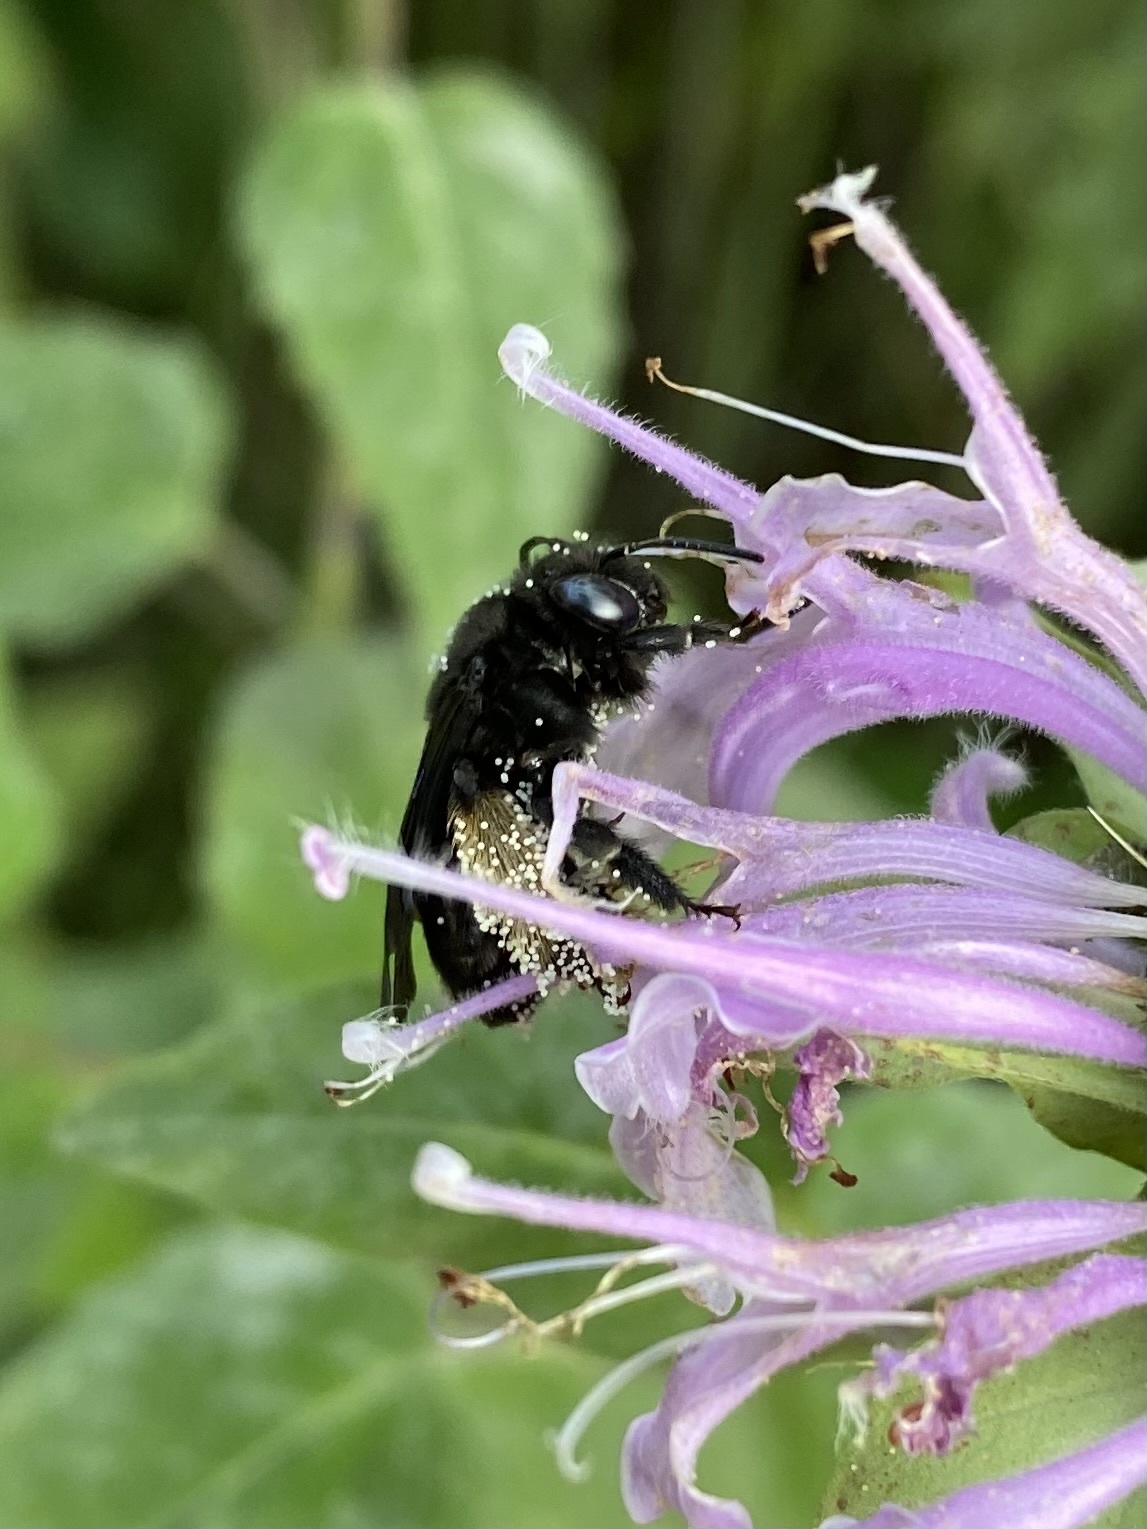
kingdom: Animalia
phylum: Arthropoda
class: Insecta
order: Hymenoptera
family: Apidae
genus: Melissodes
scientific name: Melissodes bimaculatus
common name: Two-spotted long-horned bee
